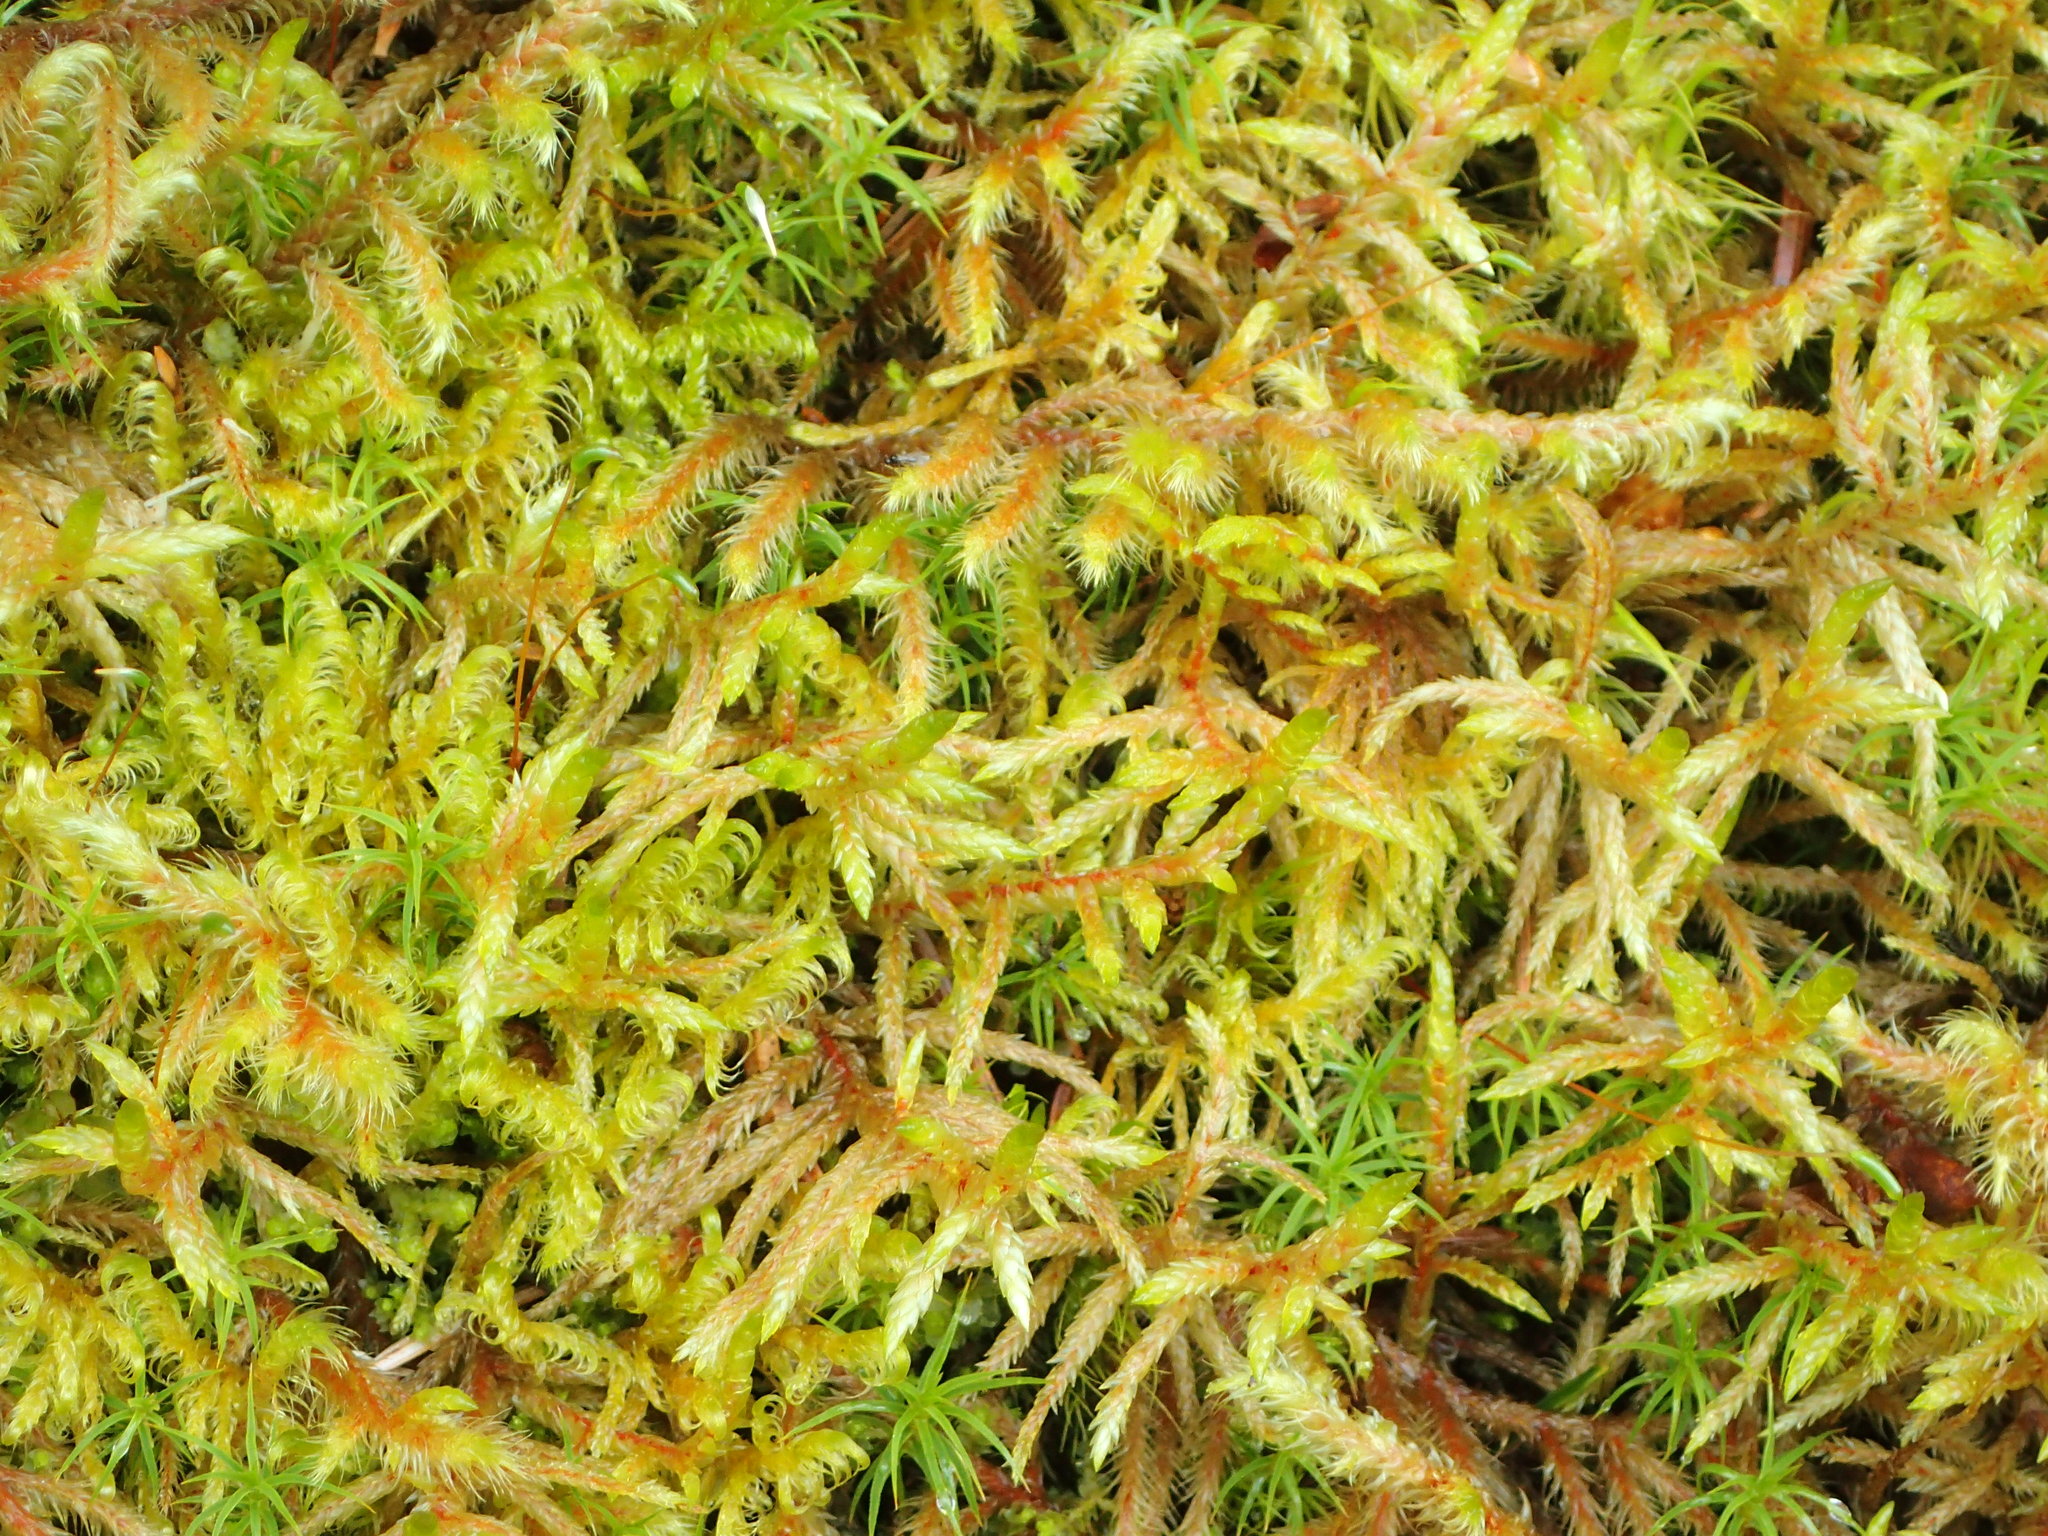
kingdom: Plantae
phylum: Bryophyta
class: Bryopsida
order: Hypnales
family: Hylocomiaceae
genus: Rhytidiadelphus
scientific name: Rhytidiadelphus loreus
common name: Lanky moss
